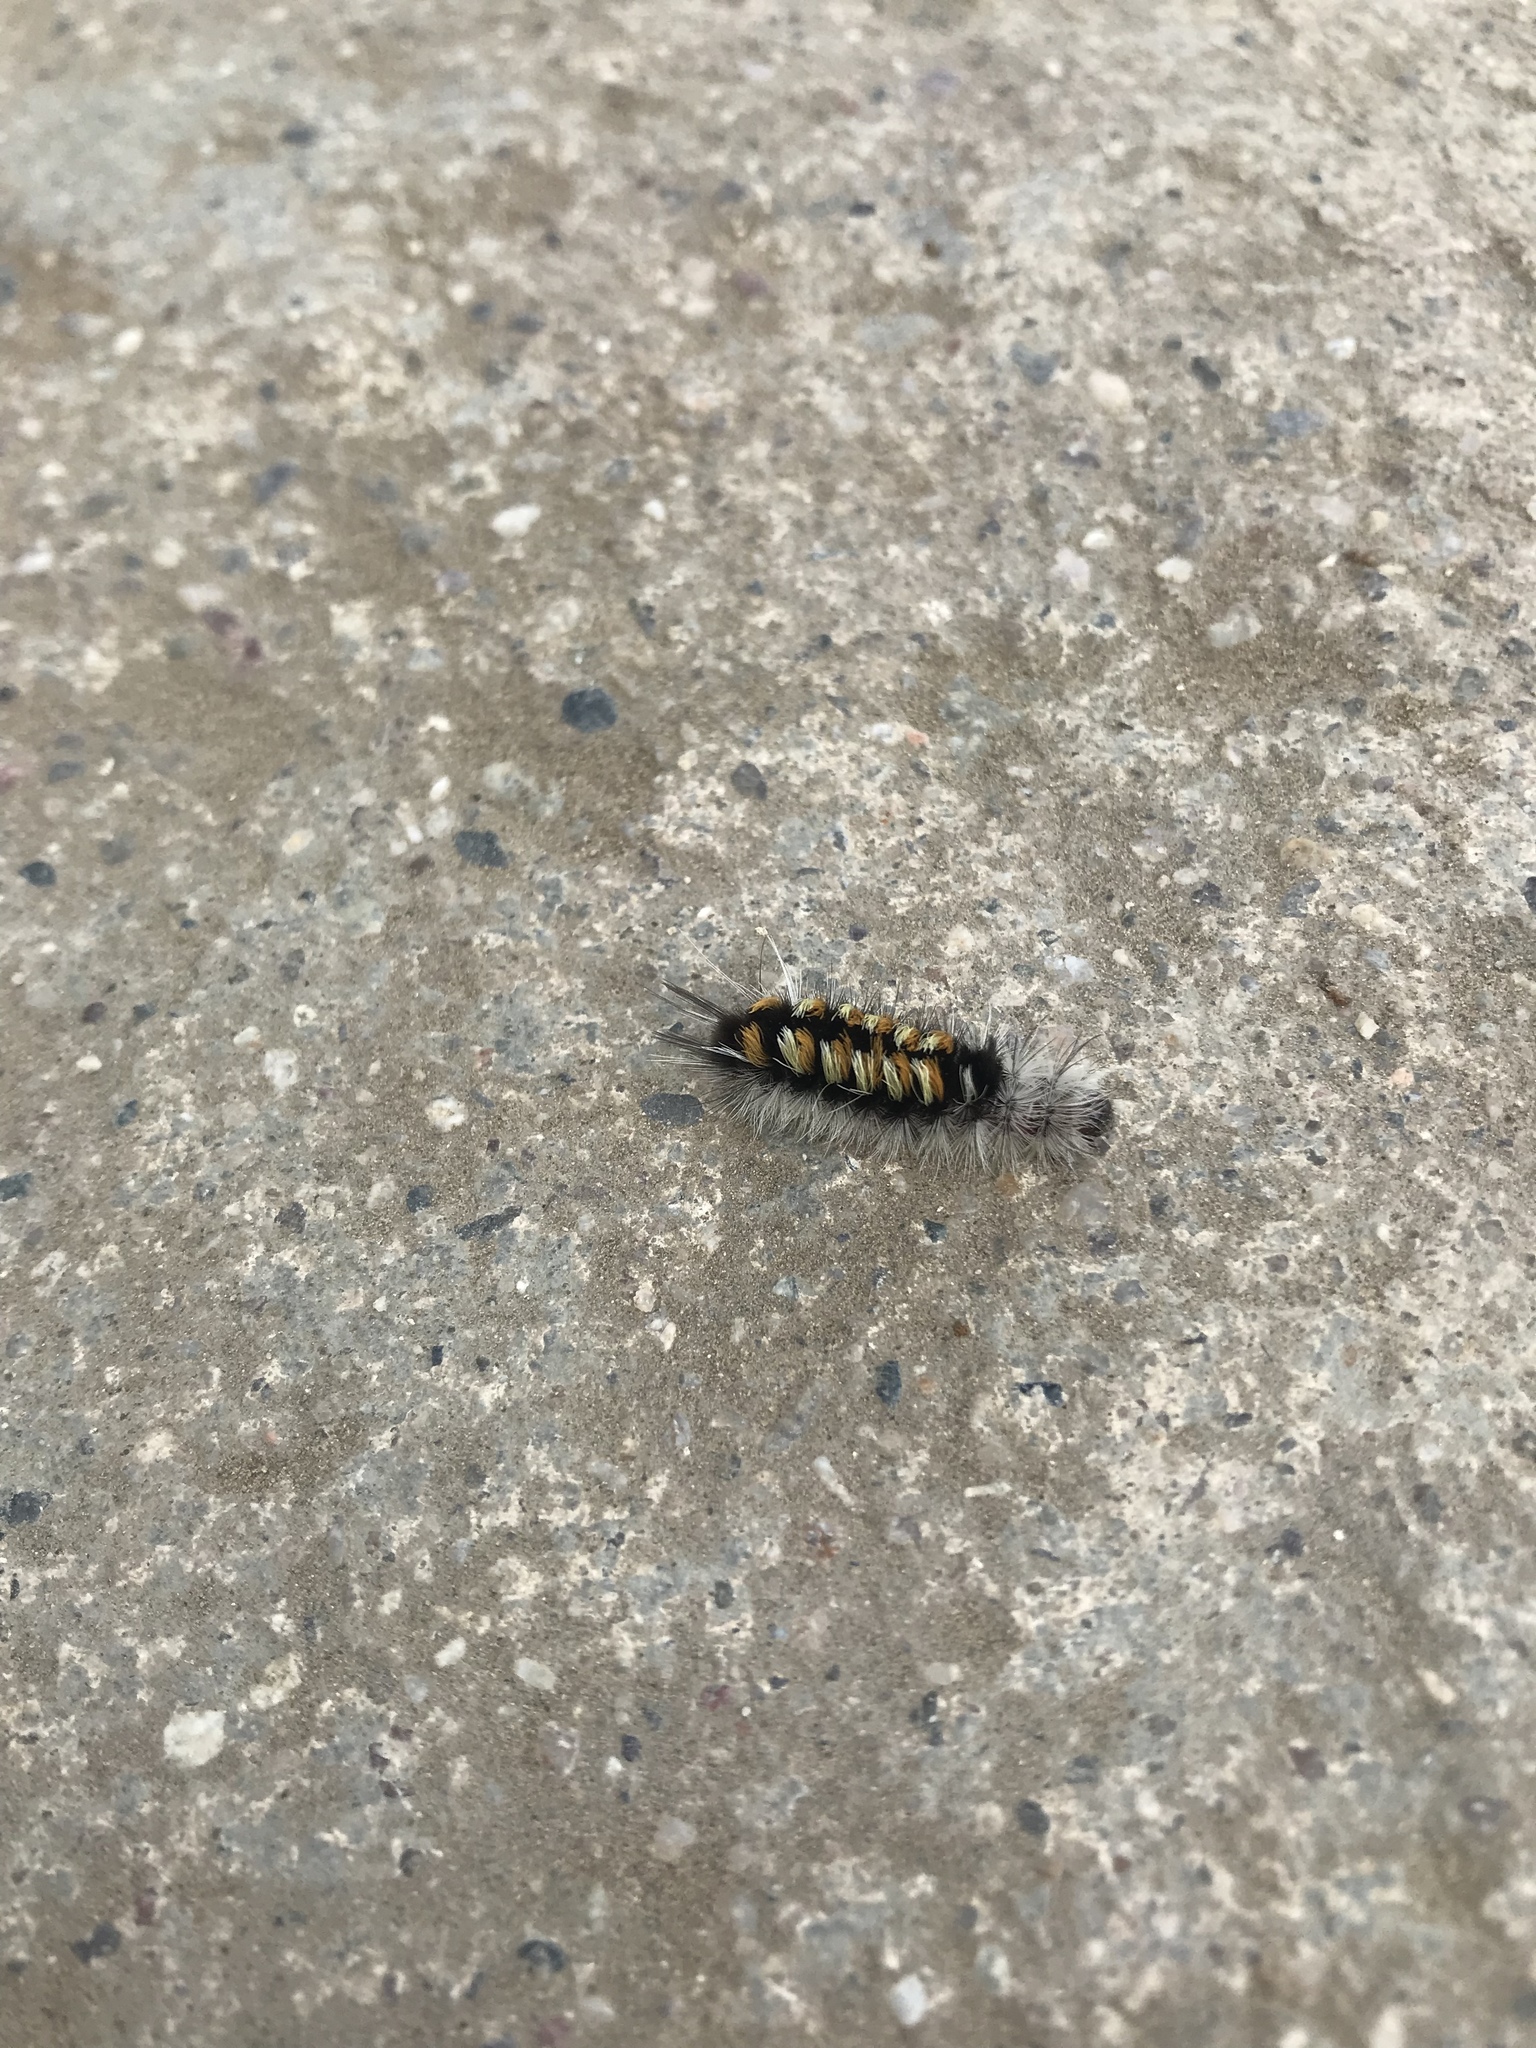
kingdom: Animalia
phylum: Arthropoda
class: Insecta
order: Lepidoptera
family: Erebidae
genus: Euchaetes
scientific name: Euchaetes
